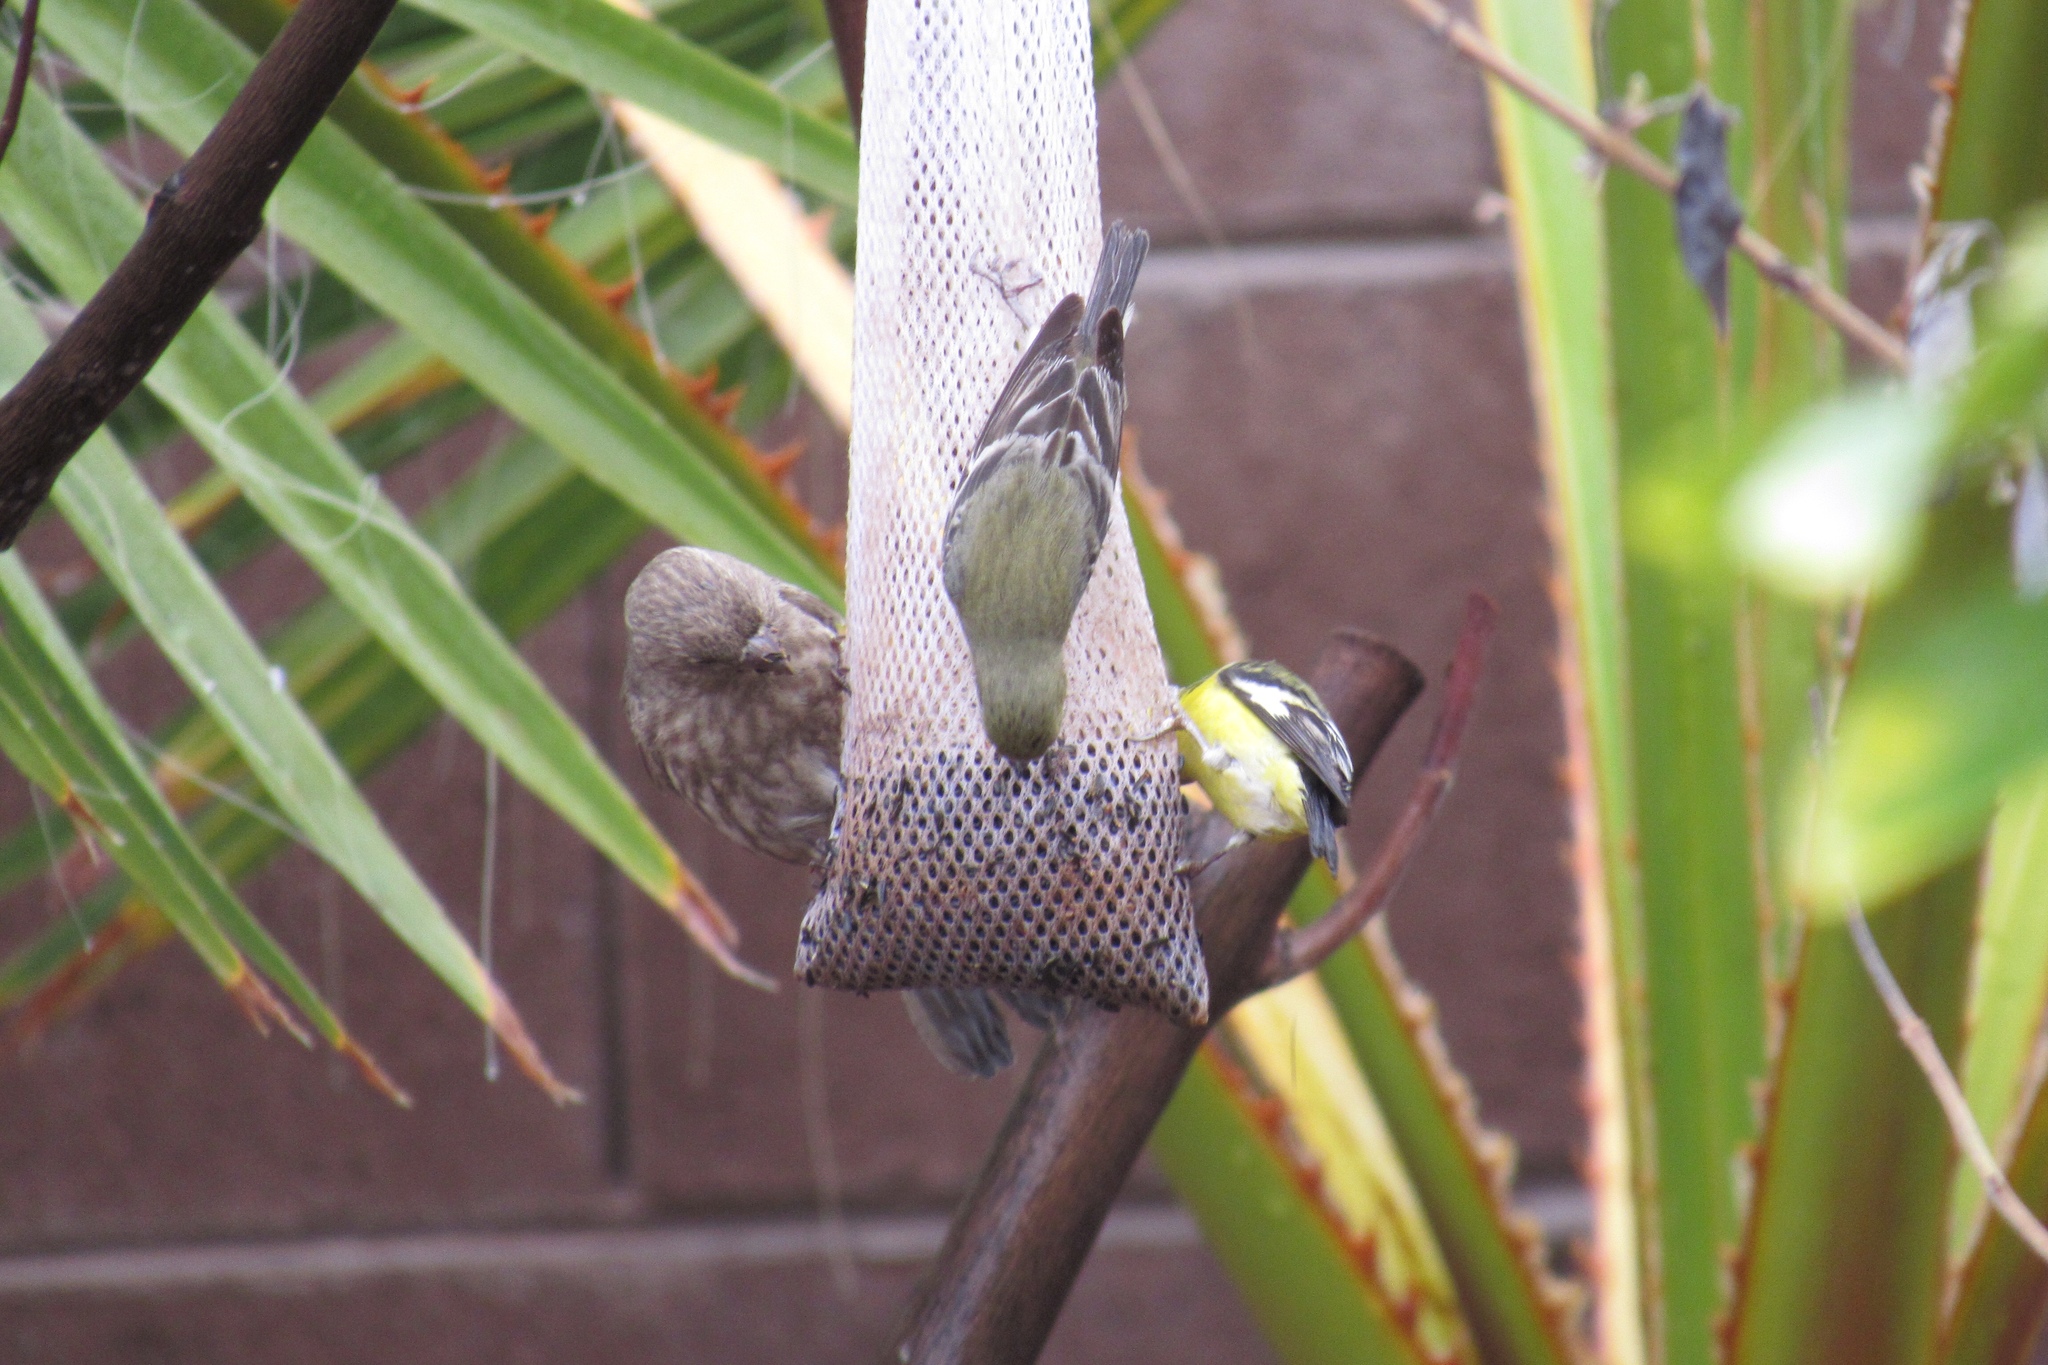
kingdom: Animalia
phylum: Chordata
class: Aves
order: Passeriformes
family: Fringillidae
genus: Spinus
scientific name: Spinus psaltria
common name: Lesser goldfinch
